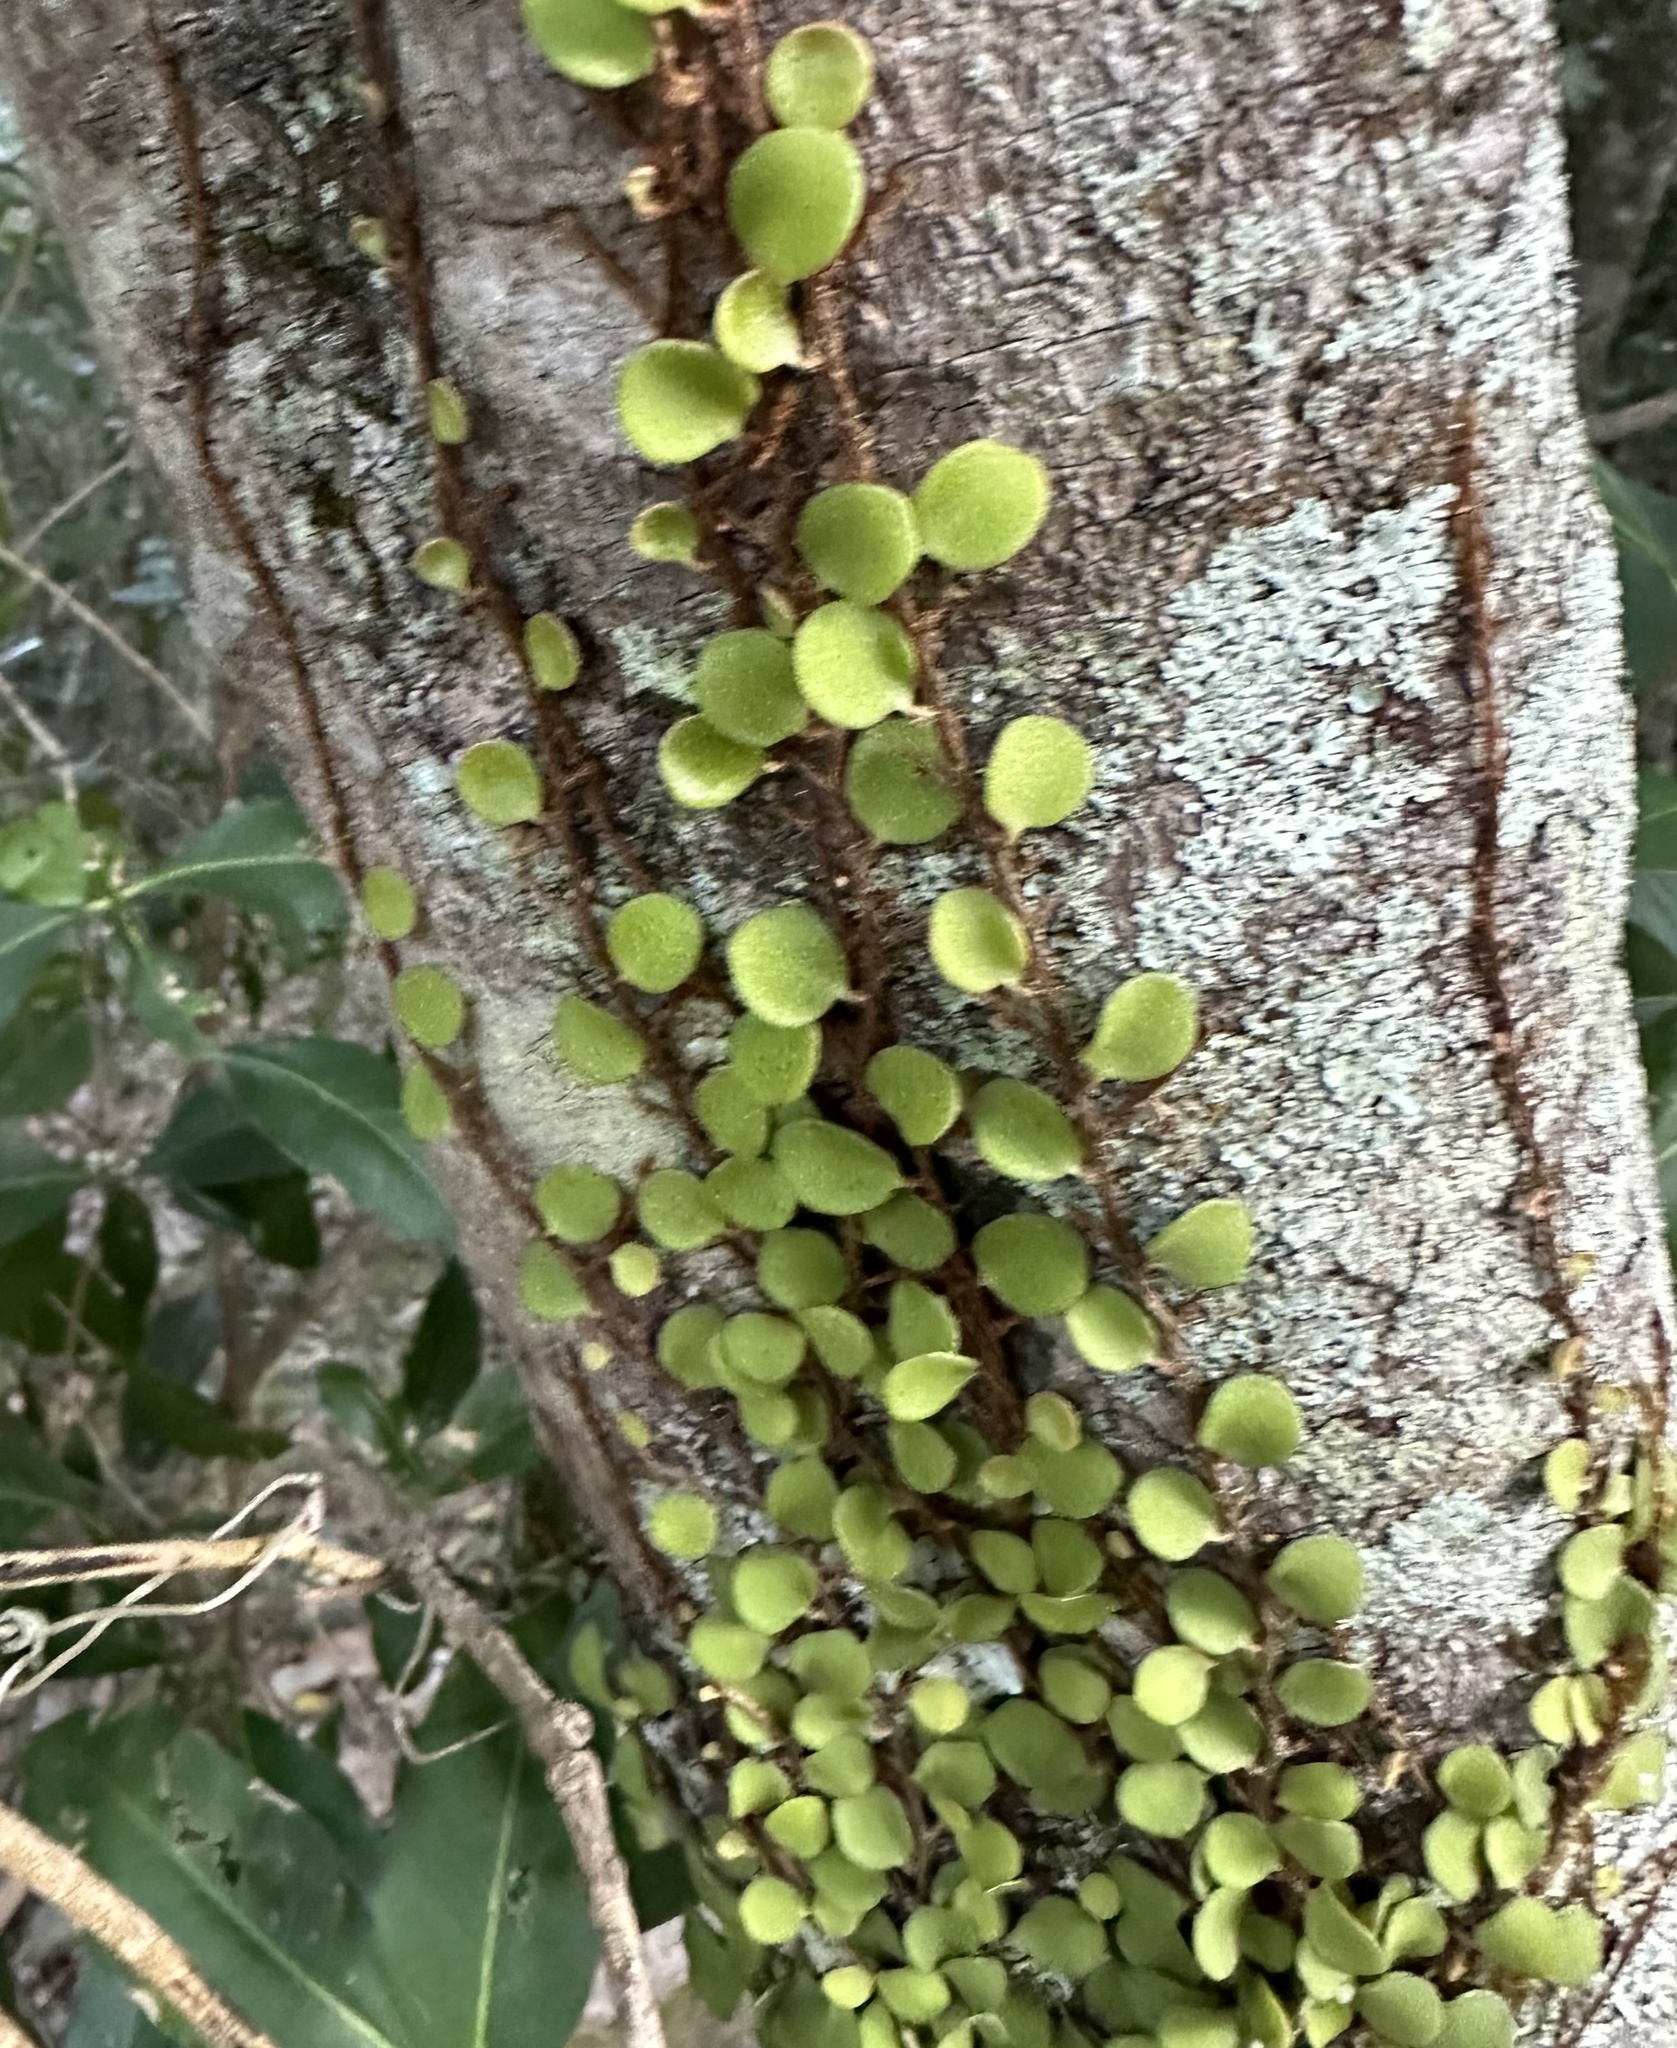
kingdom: Plantae
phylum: Tracheophyta
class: Polypodiopsida
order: Polypodiales
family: Polypodiaceae
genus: Pyrrosia
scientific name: Pyrrosia rupestris
